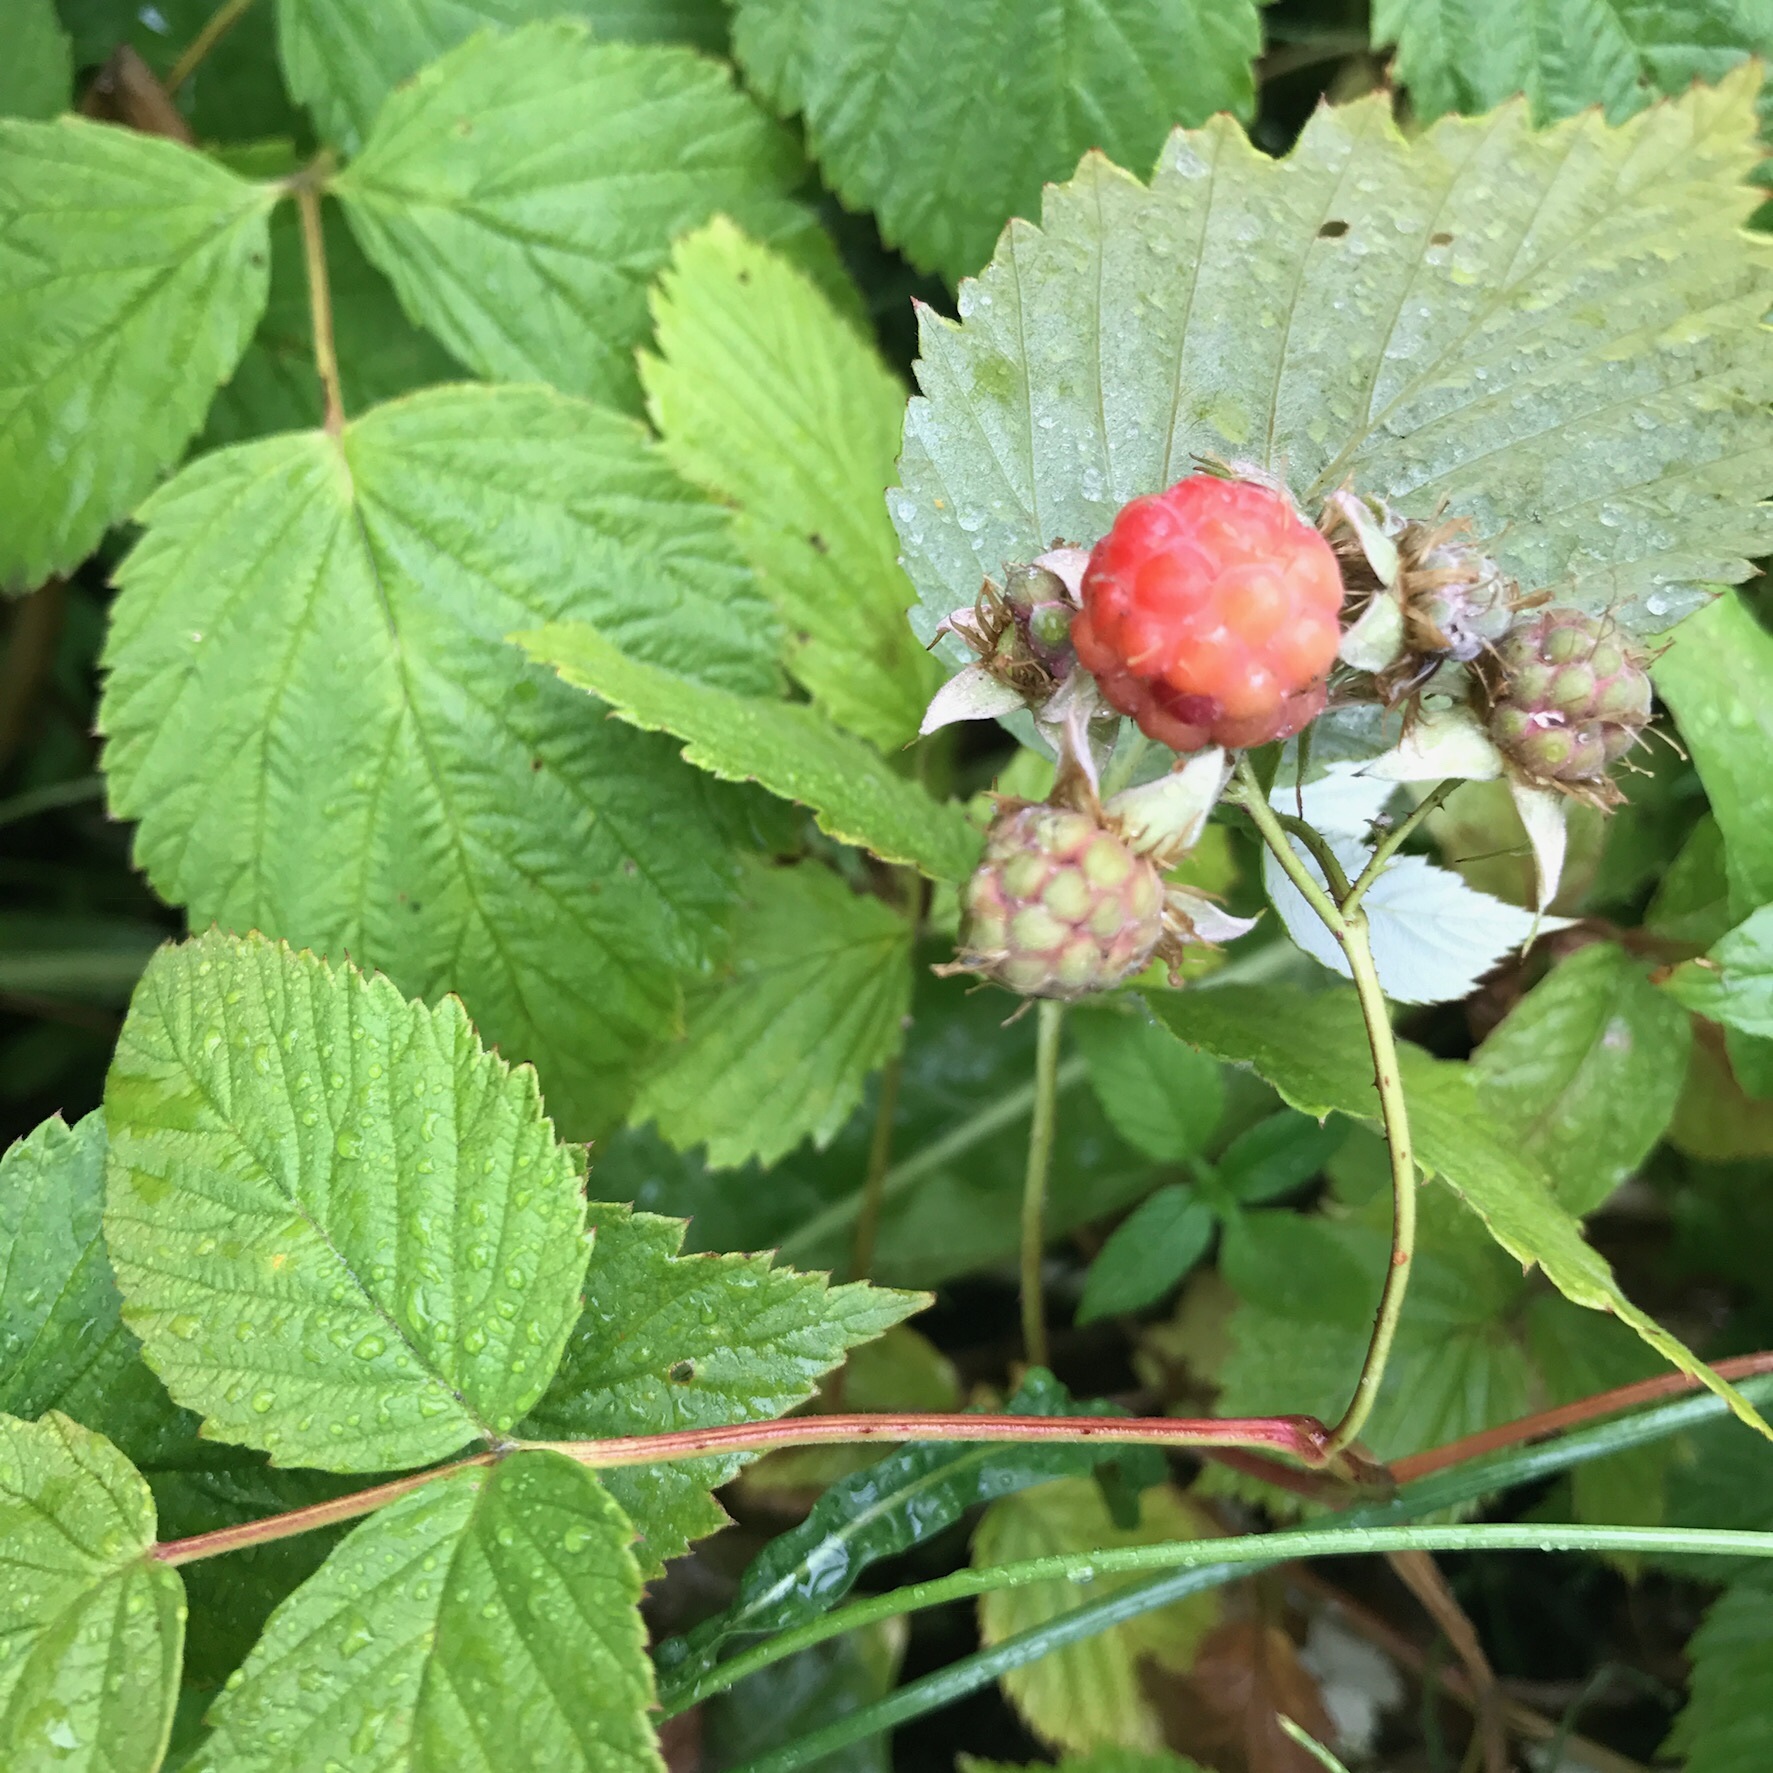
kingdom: Plantae
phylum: Tracheophyta
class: Magnoliopsida
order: Rosales
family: Rosaceae
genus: Rubus
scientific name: Rubus idaeus
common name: Raspberry
